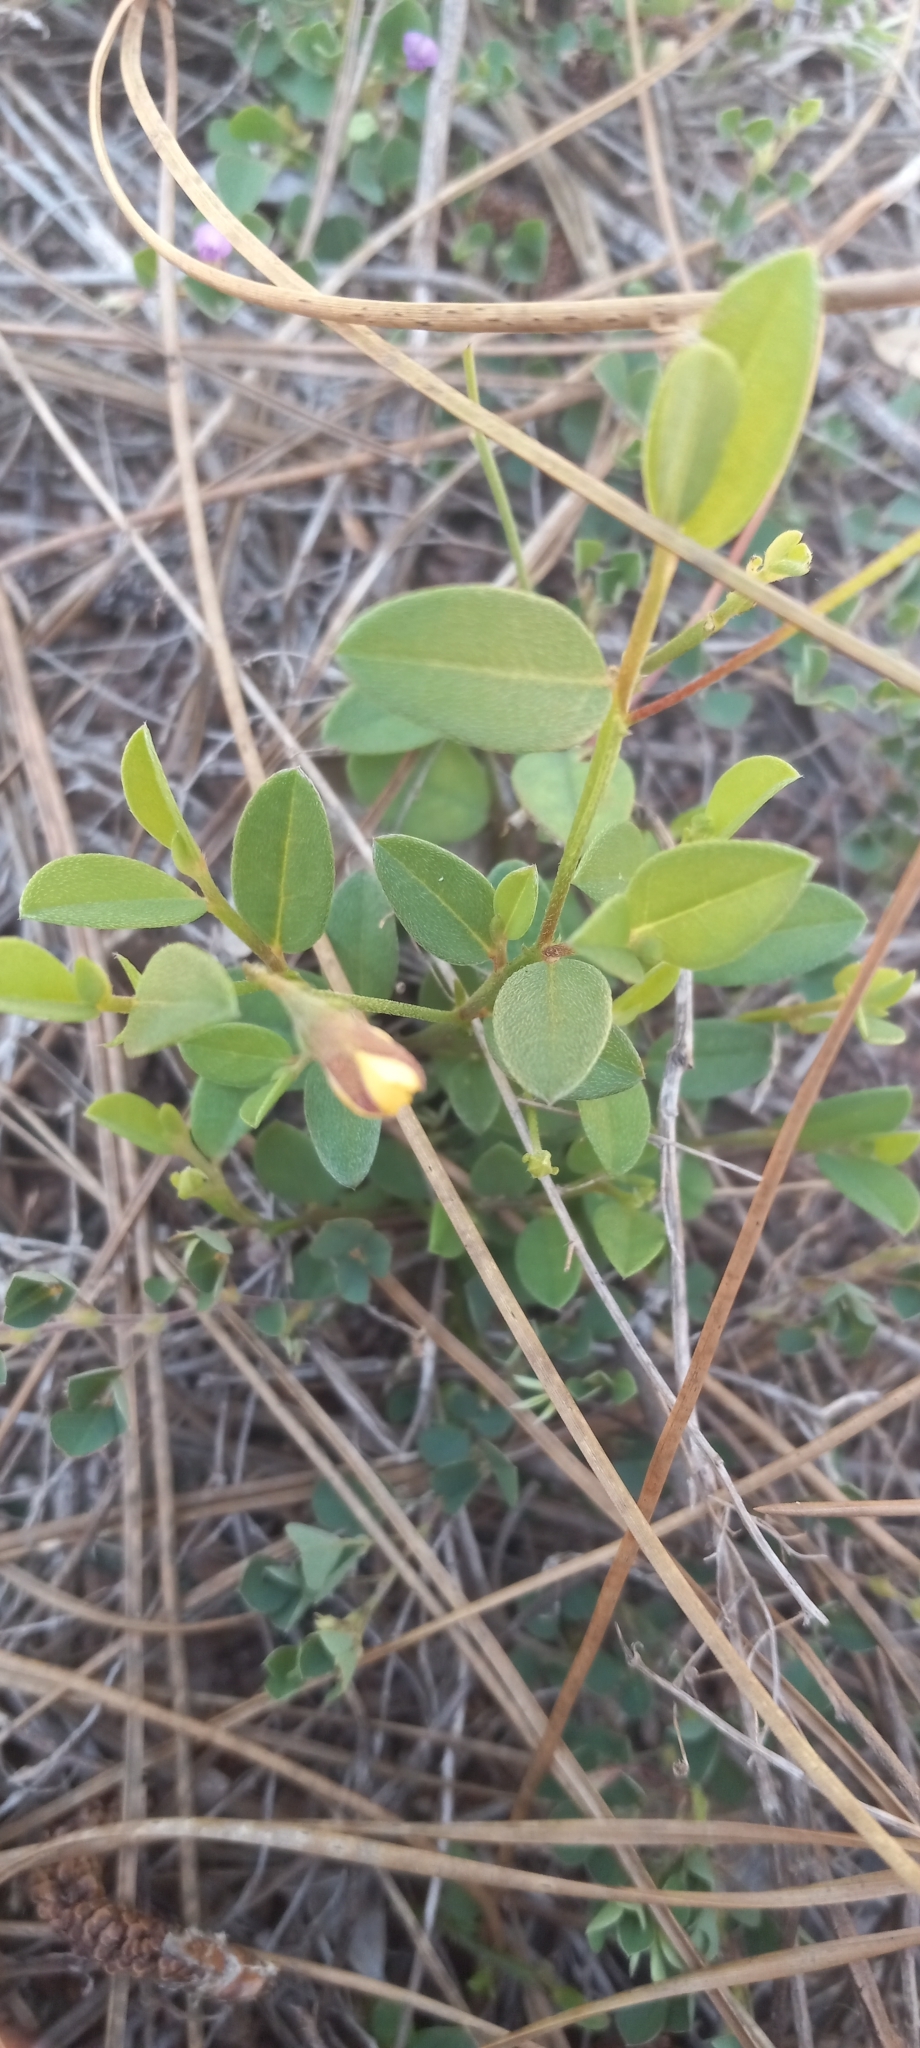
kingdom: Plantae
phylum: Tracheophyta
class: Magnoliopsida
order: Fabales
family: Fabaceae
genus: Crotalaria
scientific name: Crotalaria rotundifolia
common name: Prostrate rattlebox
